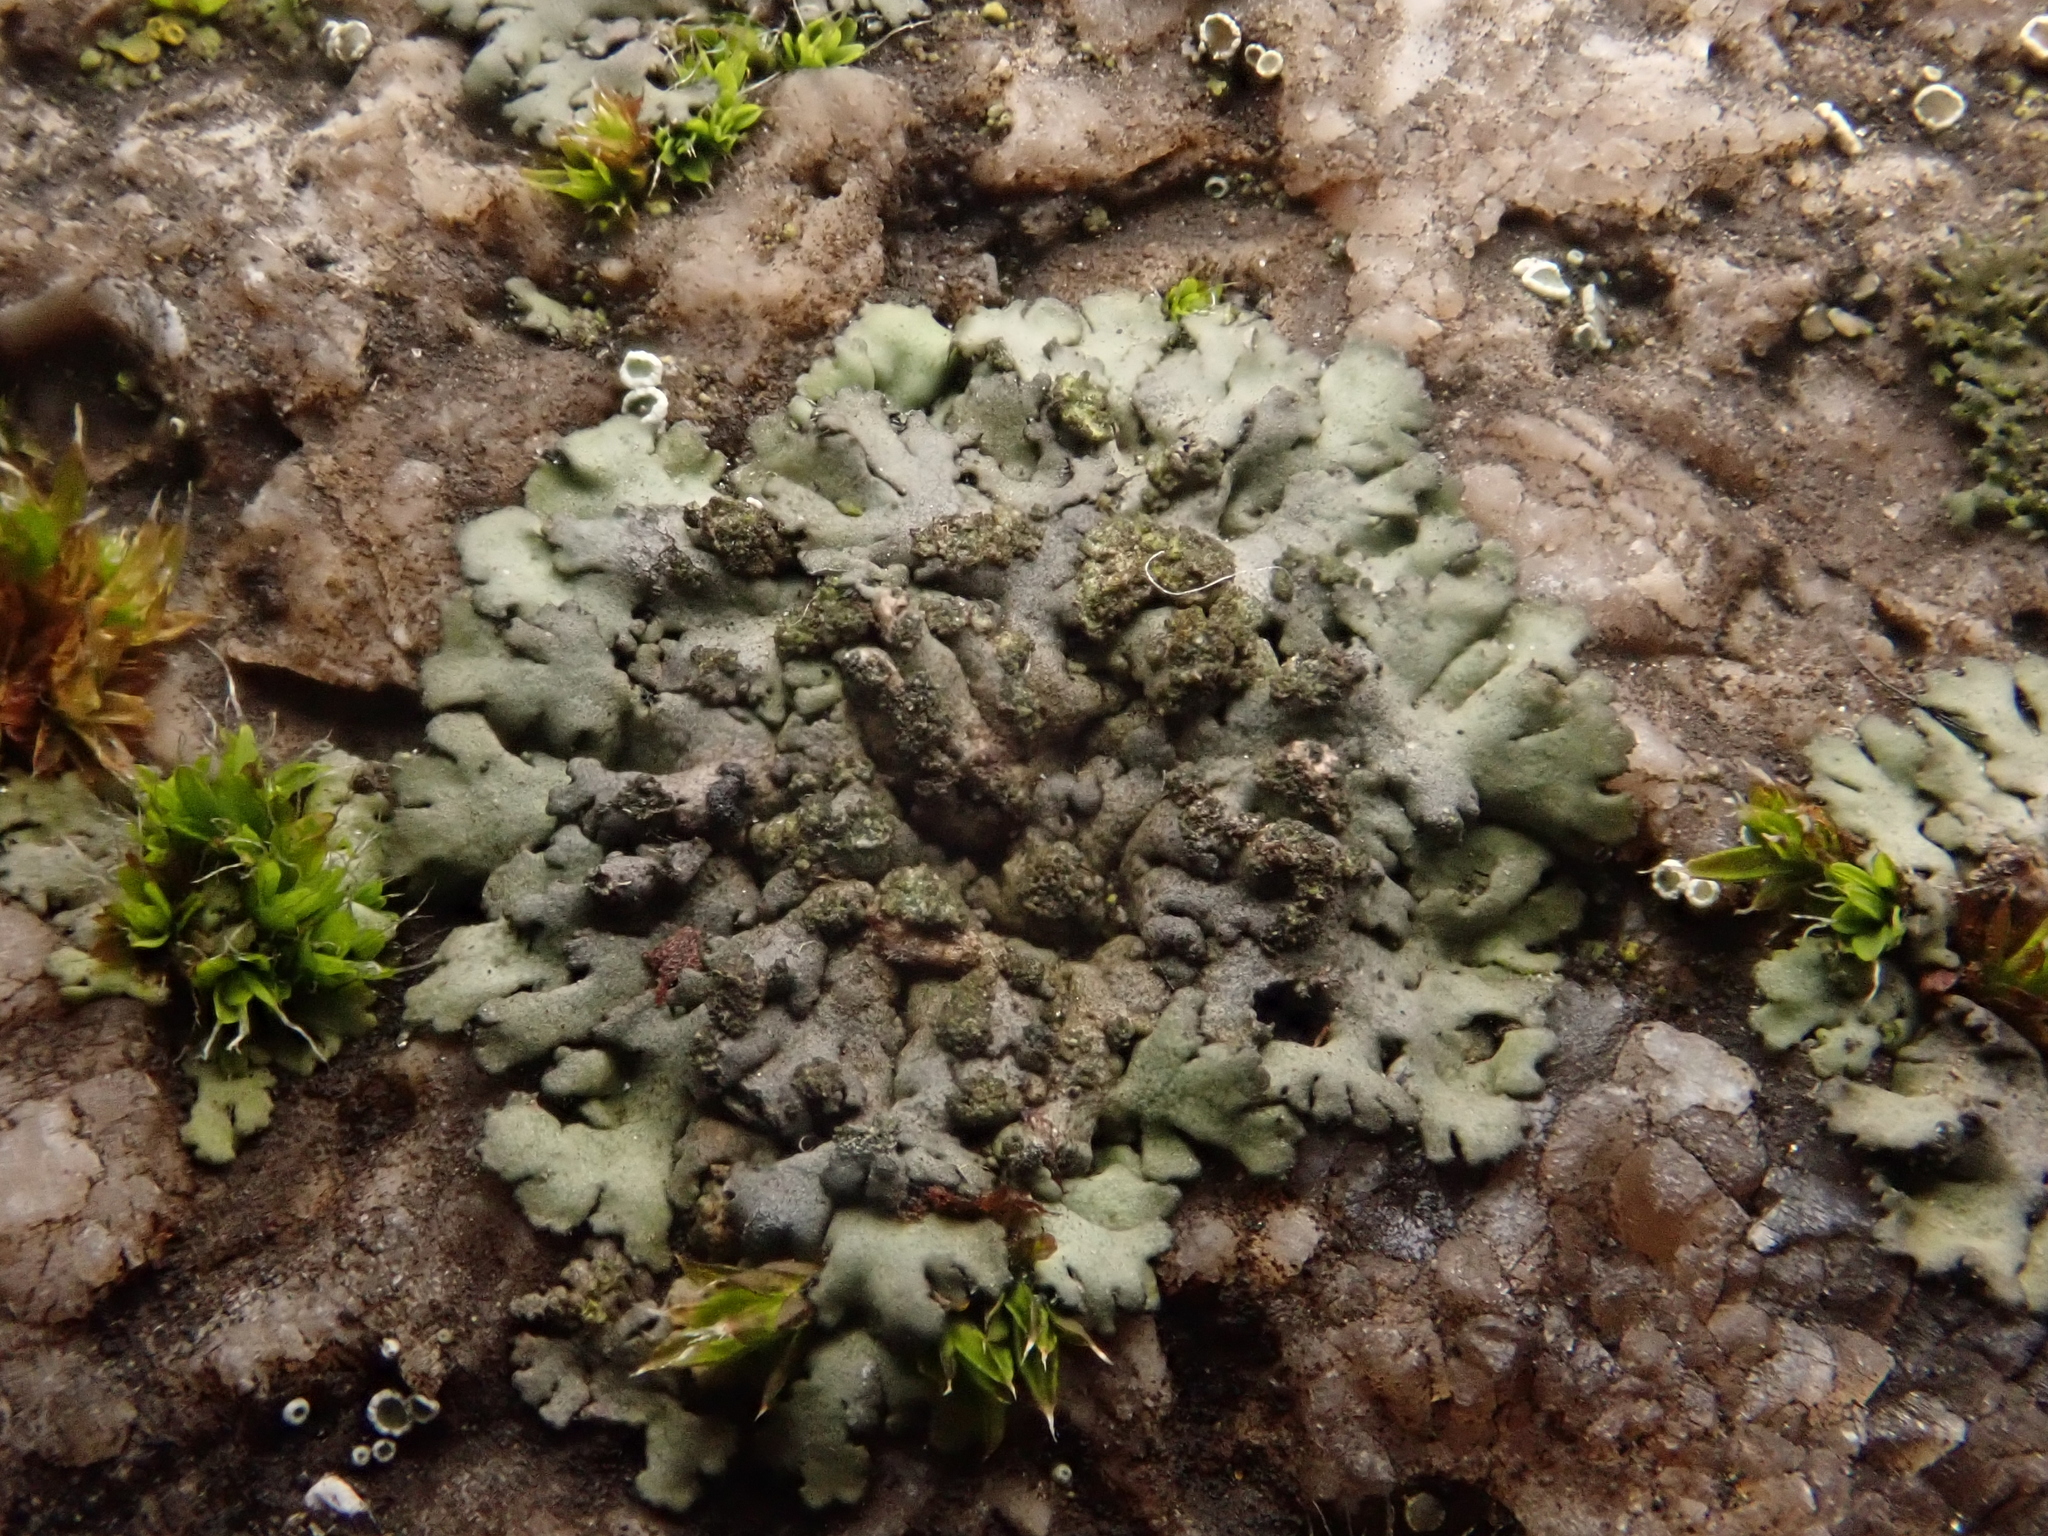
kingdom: Fungi
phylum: Ascomycota
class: Lecanoromycetes
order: Caliciales
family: Physciaceae
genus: Phaeophyscia
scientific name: Phaeophyscia orbicularis
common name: Mealy shadow lichen
